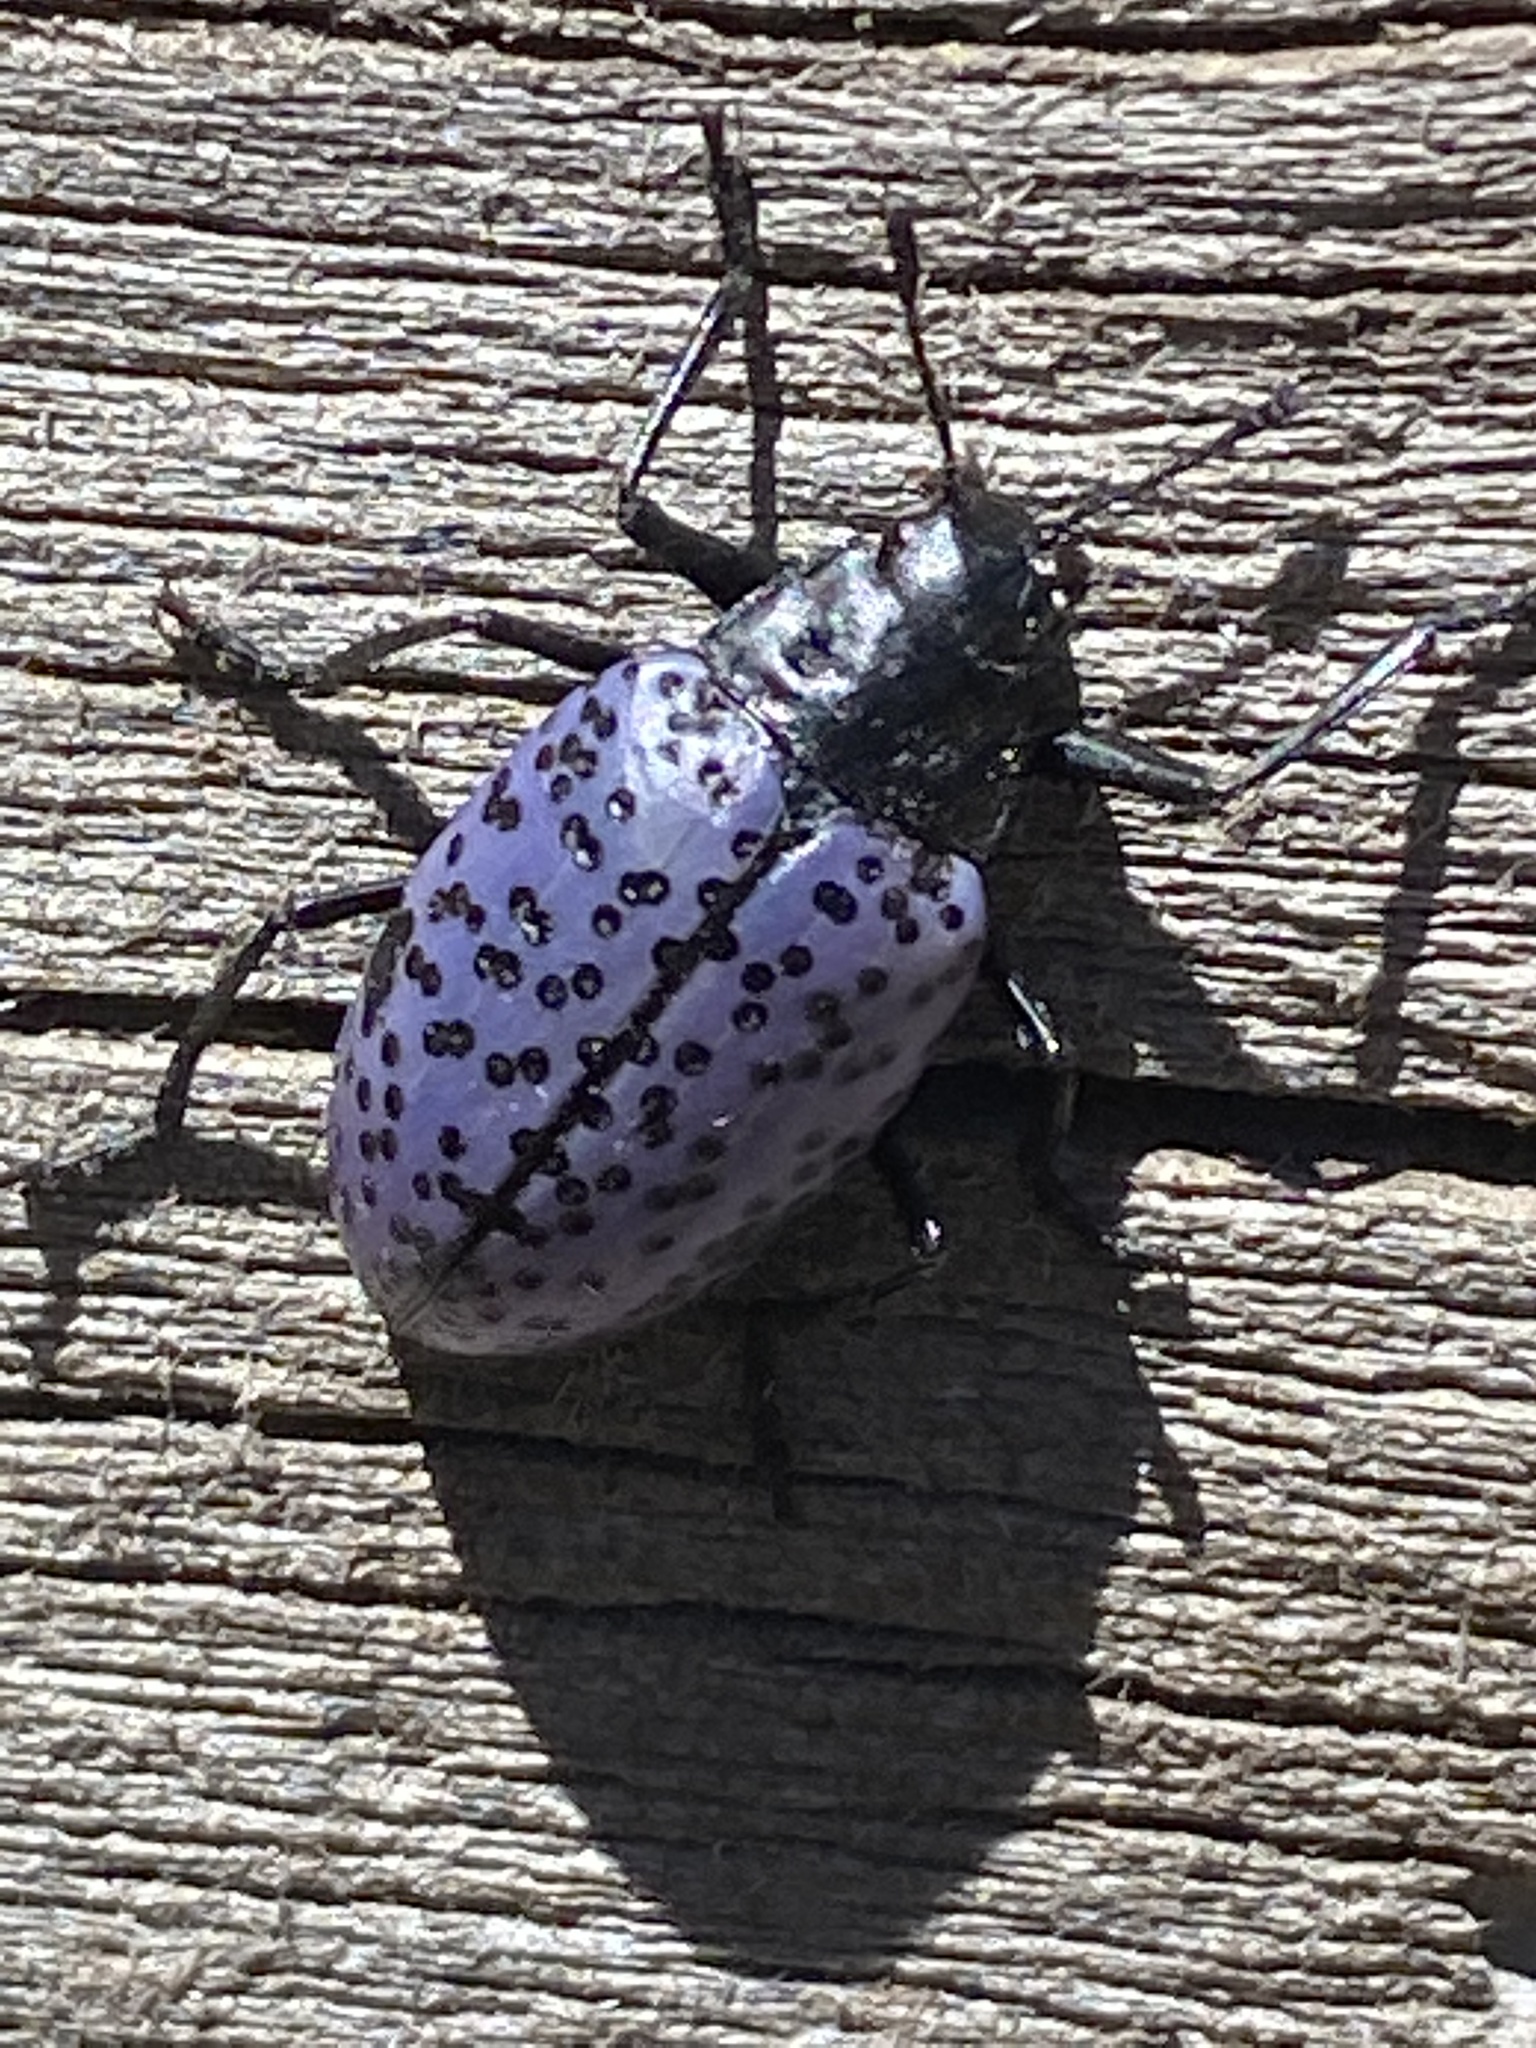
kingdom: Animalia
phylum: Arthropoda
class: Insecta
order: Coleoptera
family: Erotylidae
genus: Gibbifer
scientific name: Gibbifer californicus
